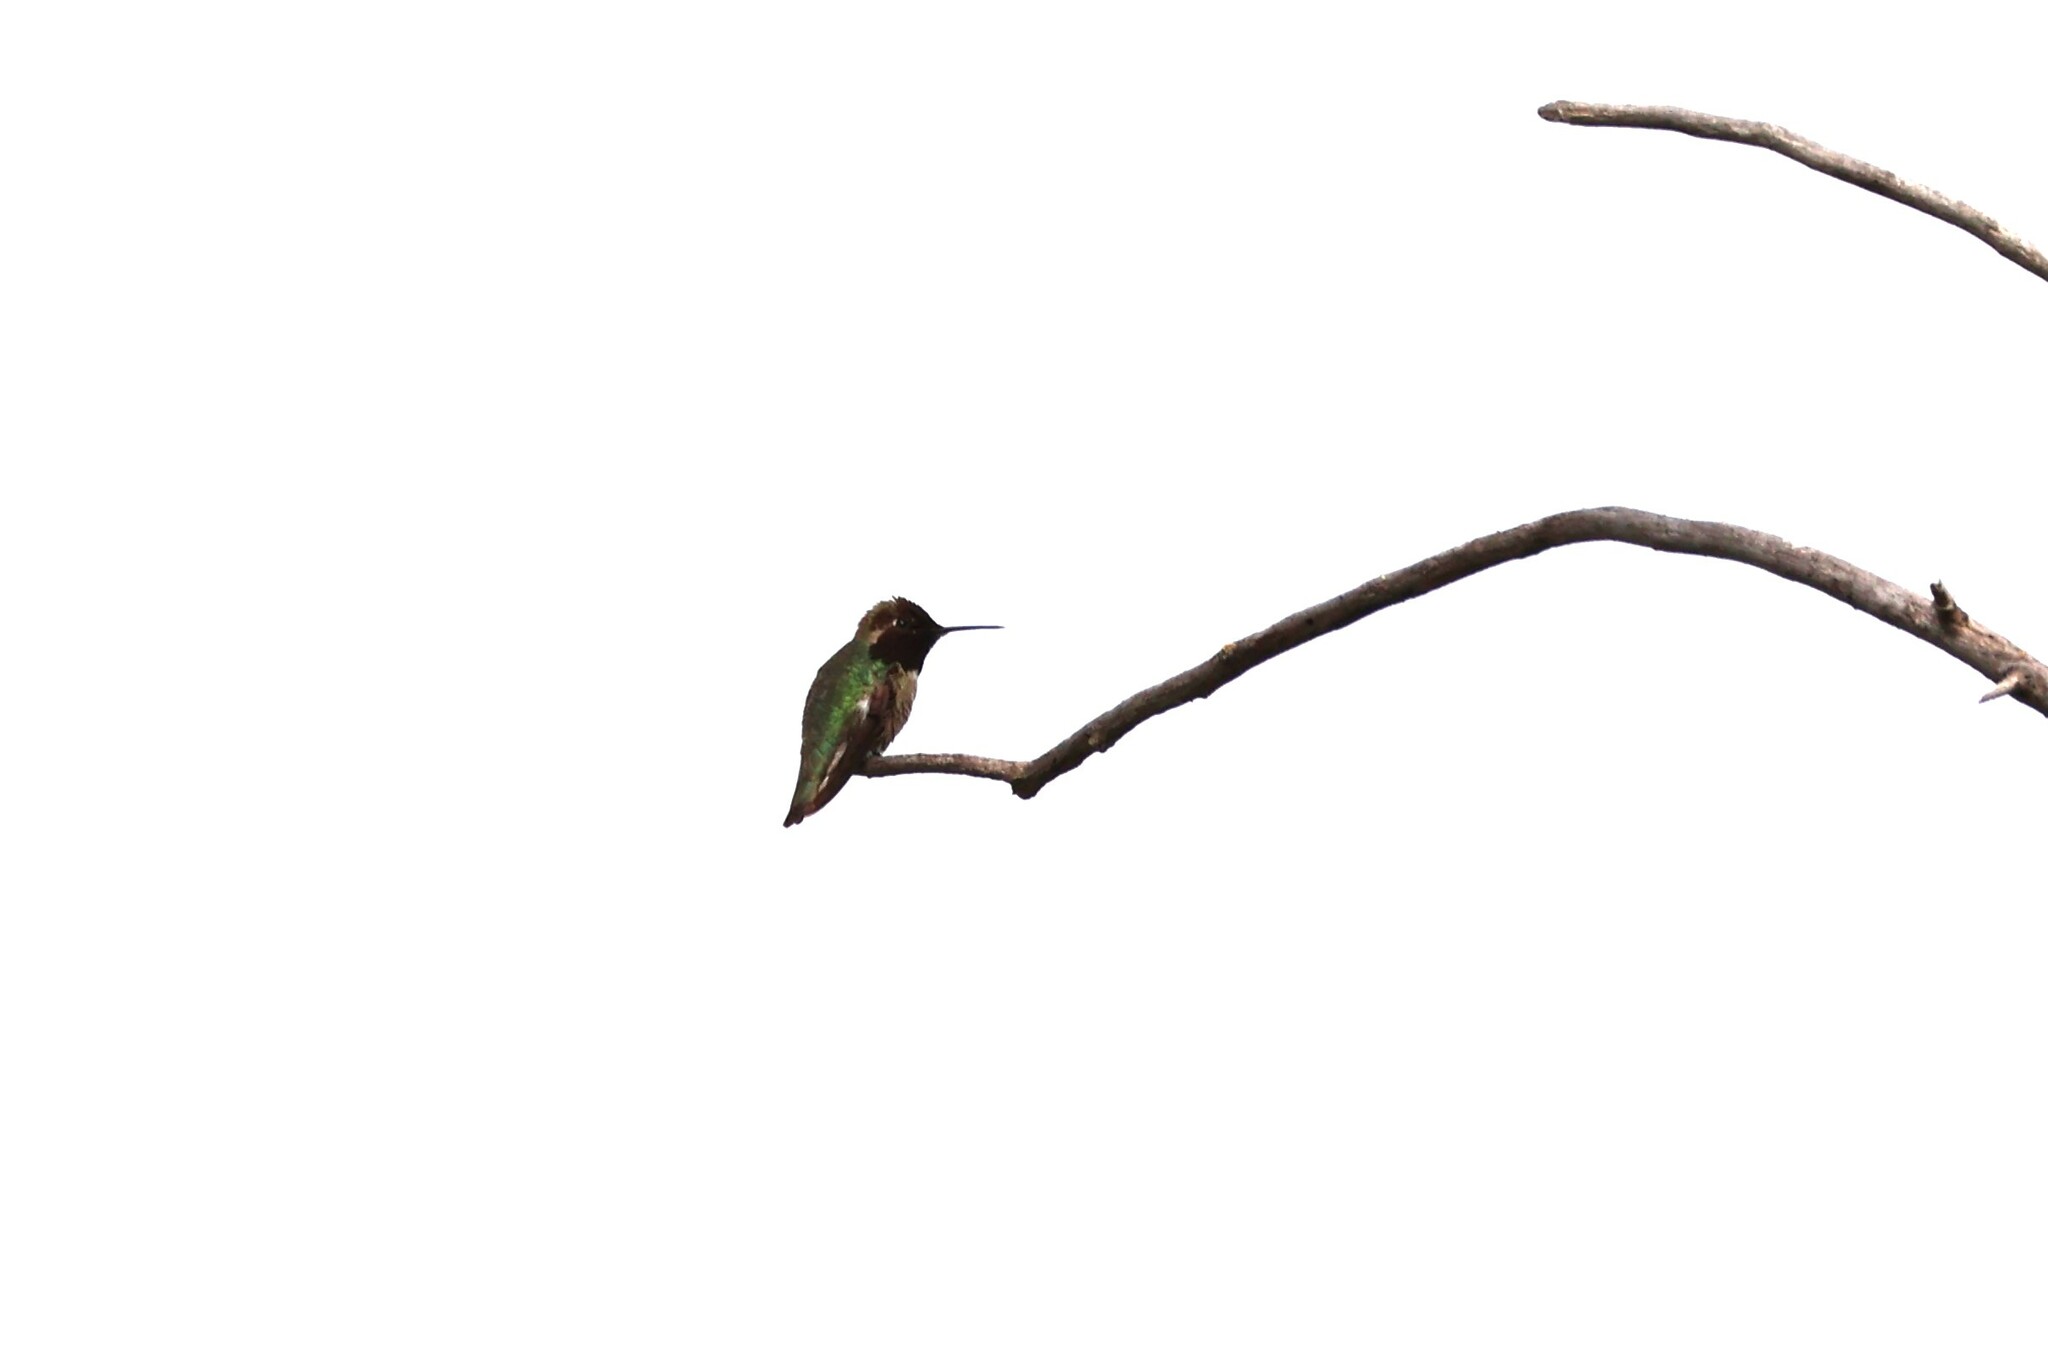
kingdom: Animalia
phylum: Chordata
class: Aves
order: Apodiformes
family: Trochilidae
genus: Calypte
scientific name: Calypte anna
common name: Anna's hummingbird
